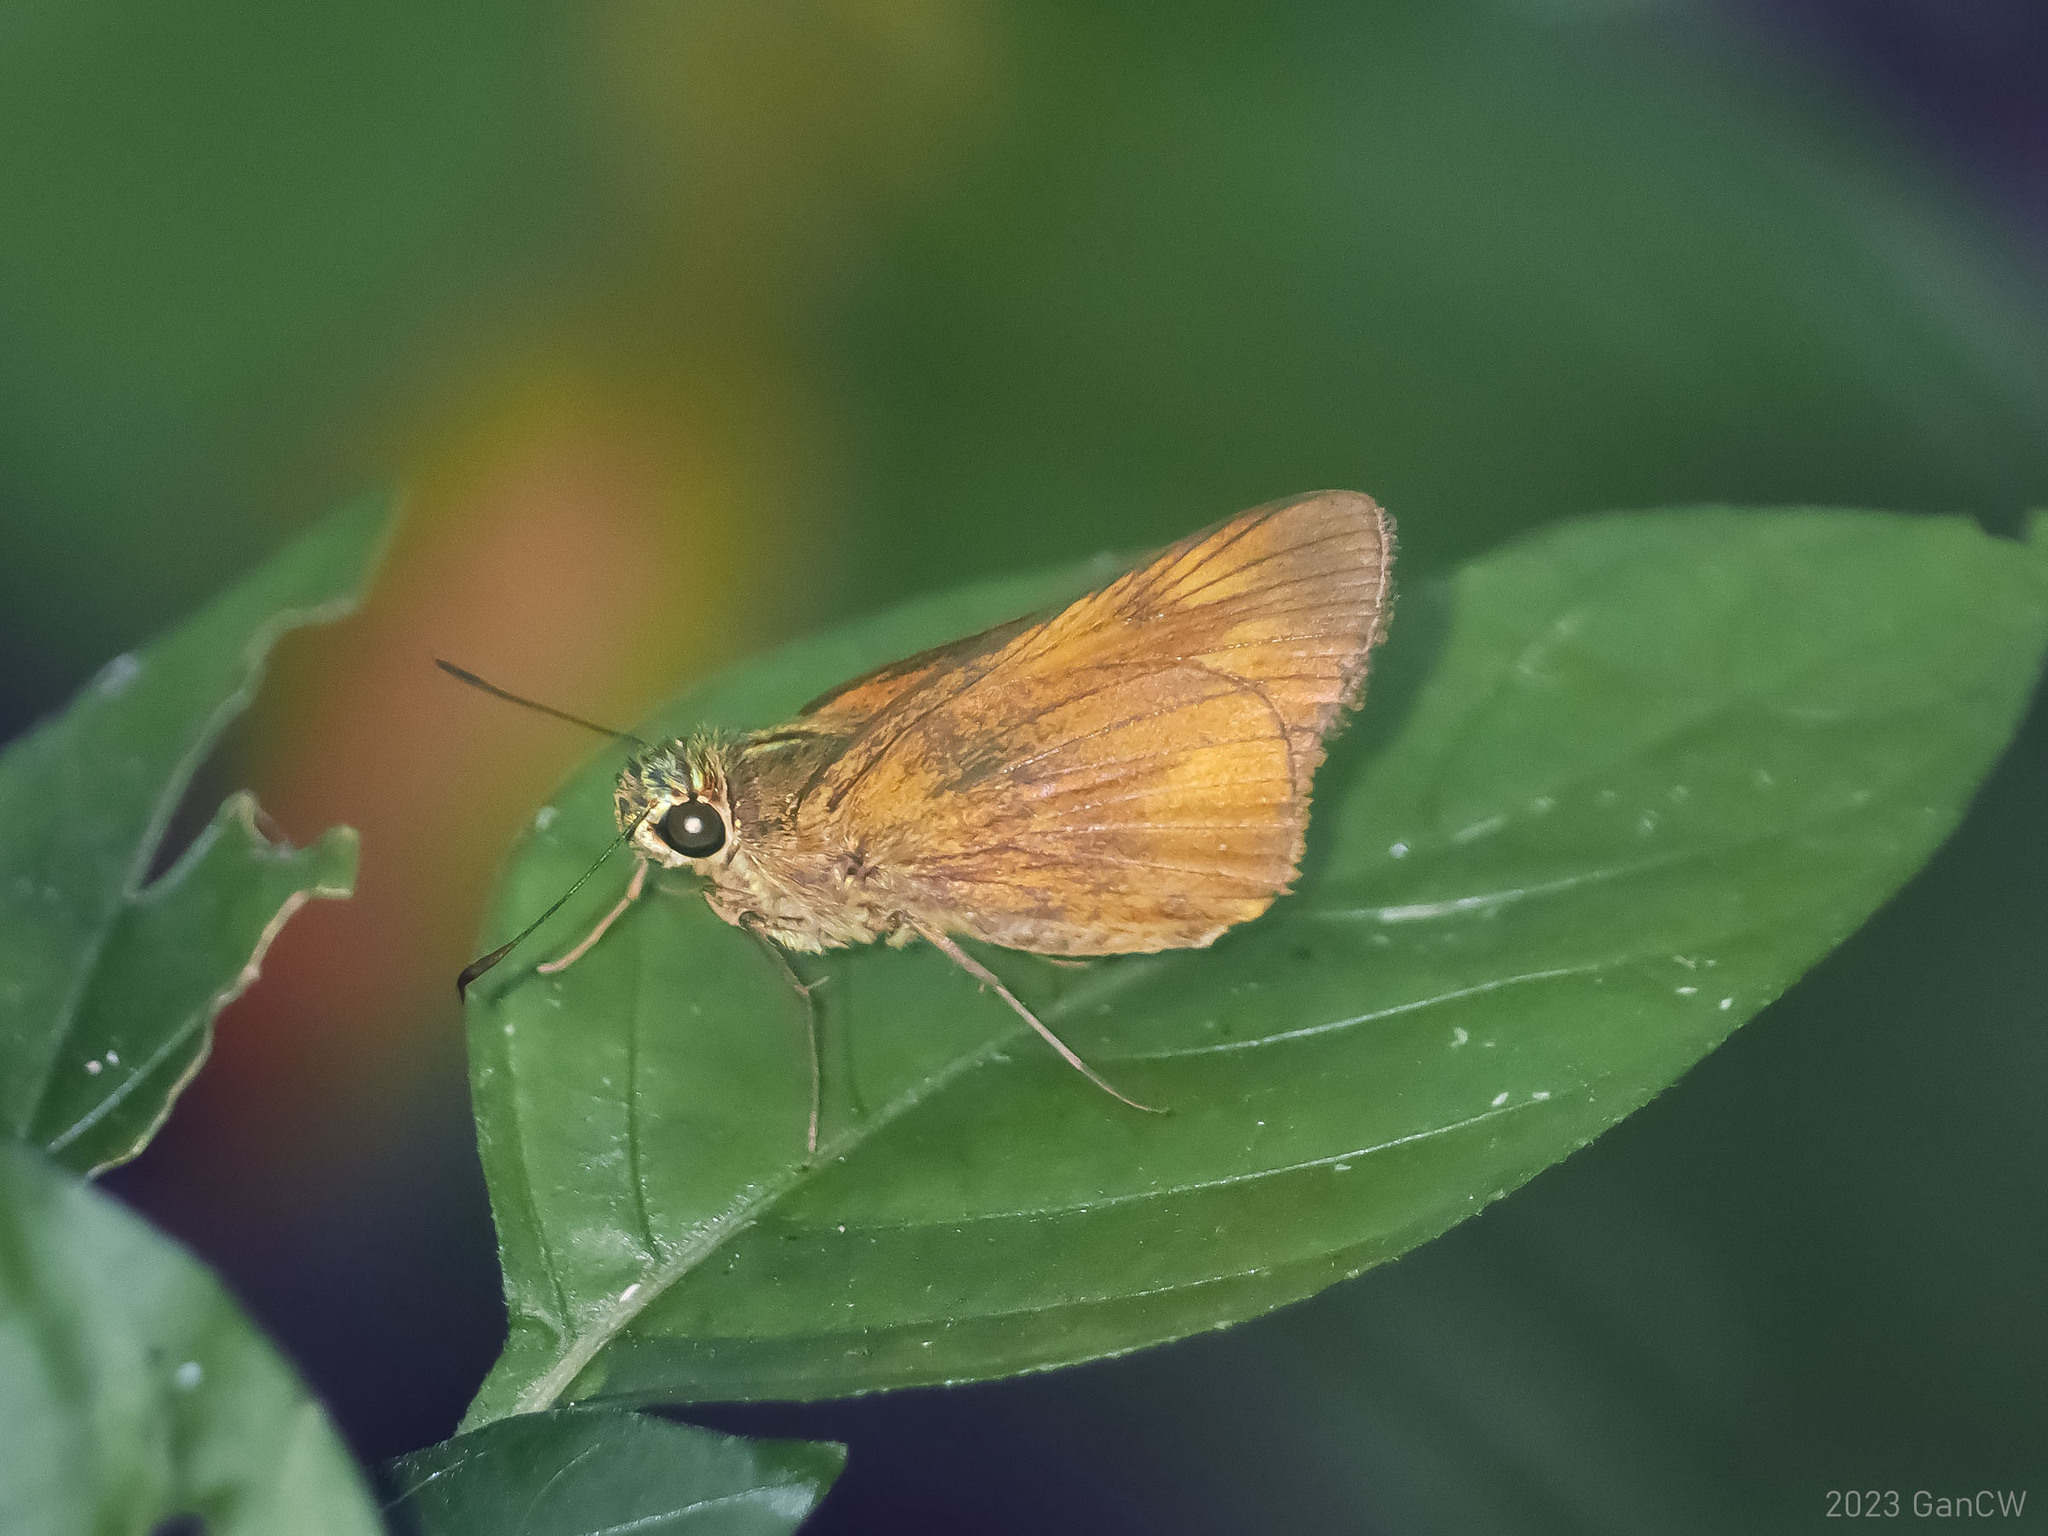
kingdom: Animalia
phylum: Arthropoda
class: Insecta
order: Lepidoptera
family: Hesperiidae
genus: Prusiana
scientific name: Prusiana prusias
